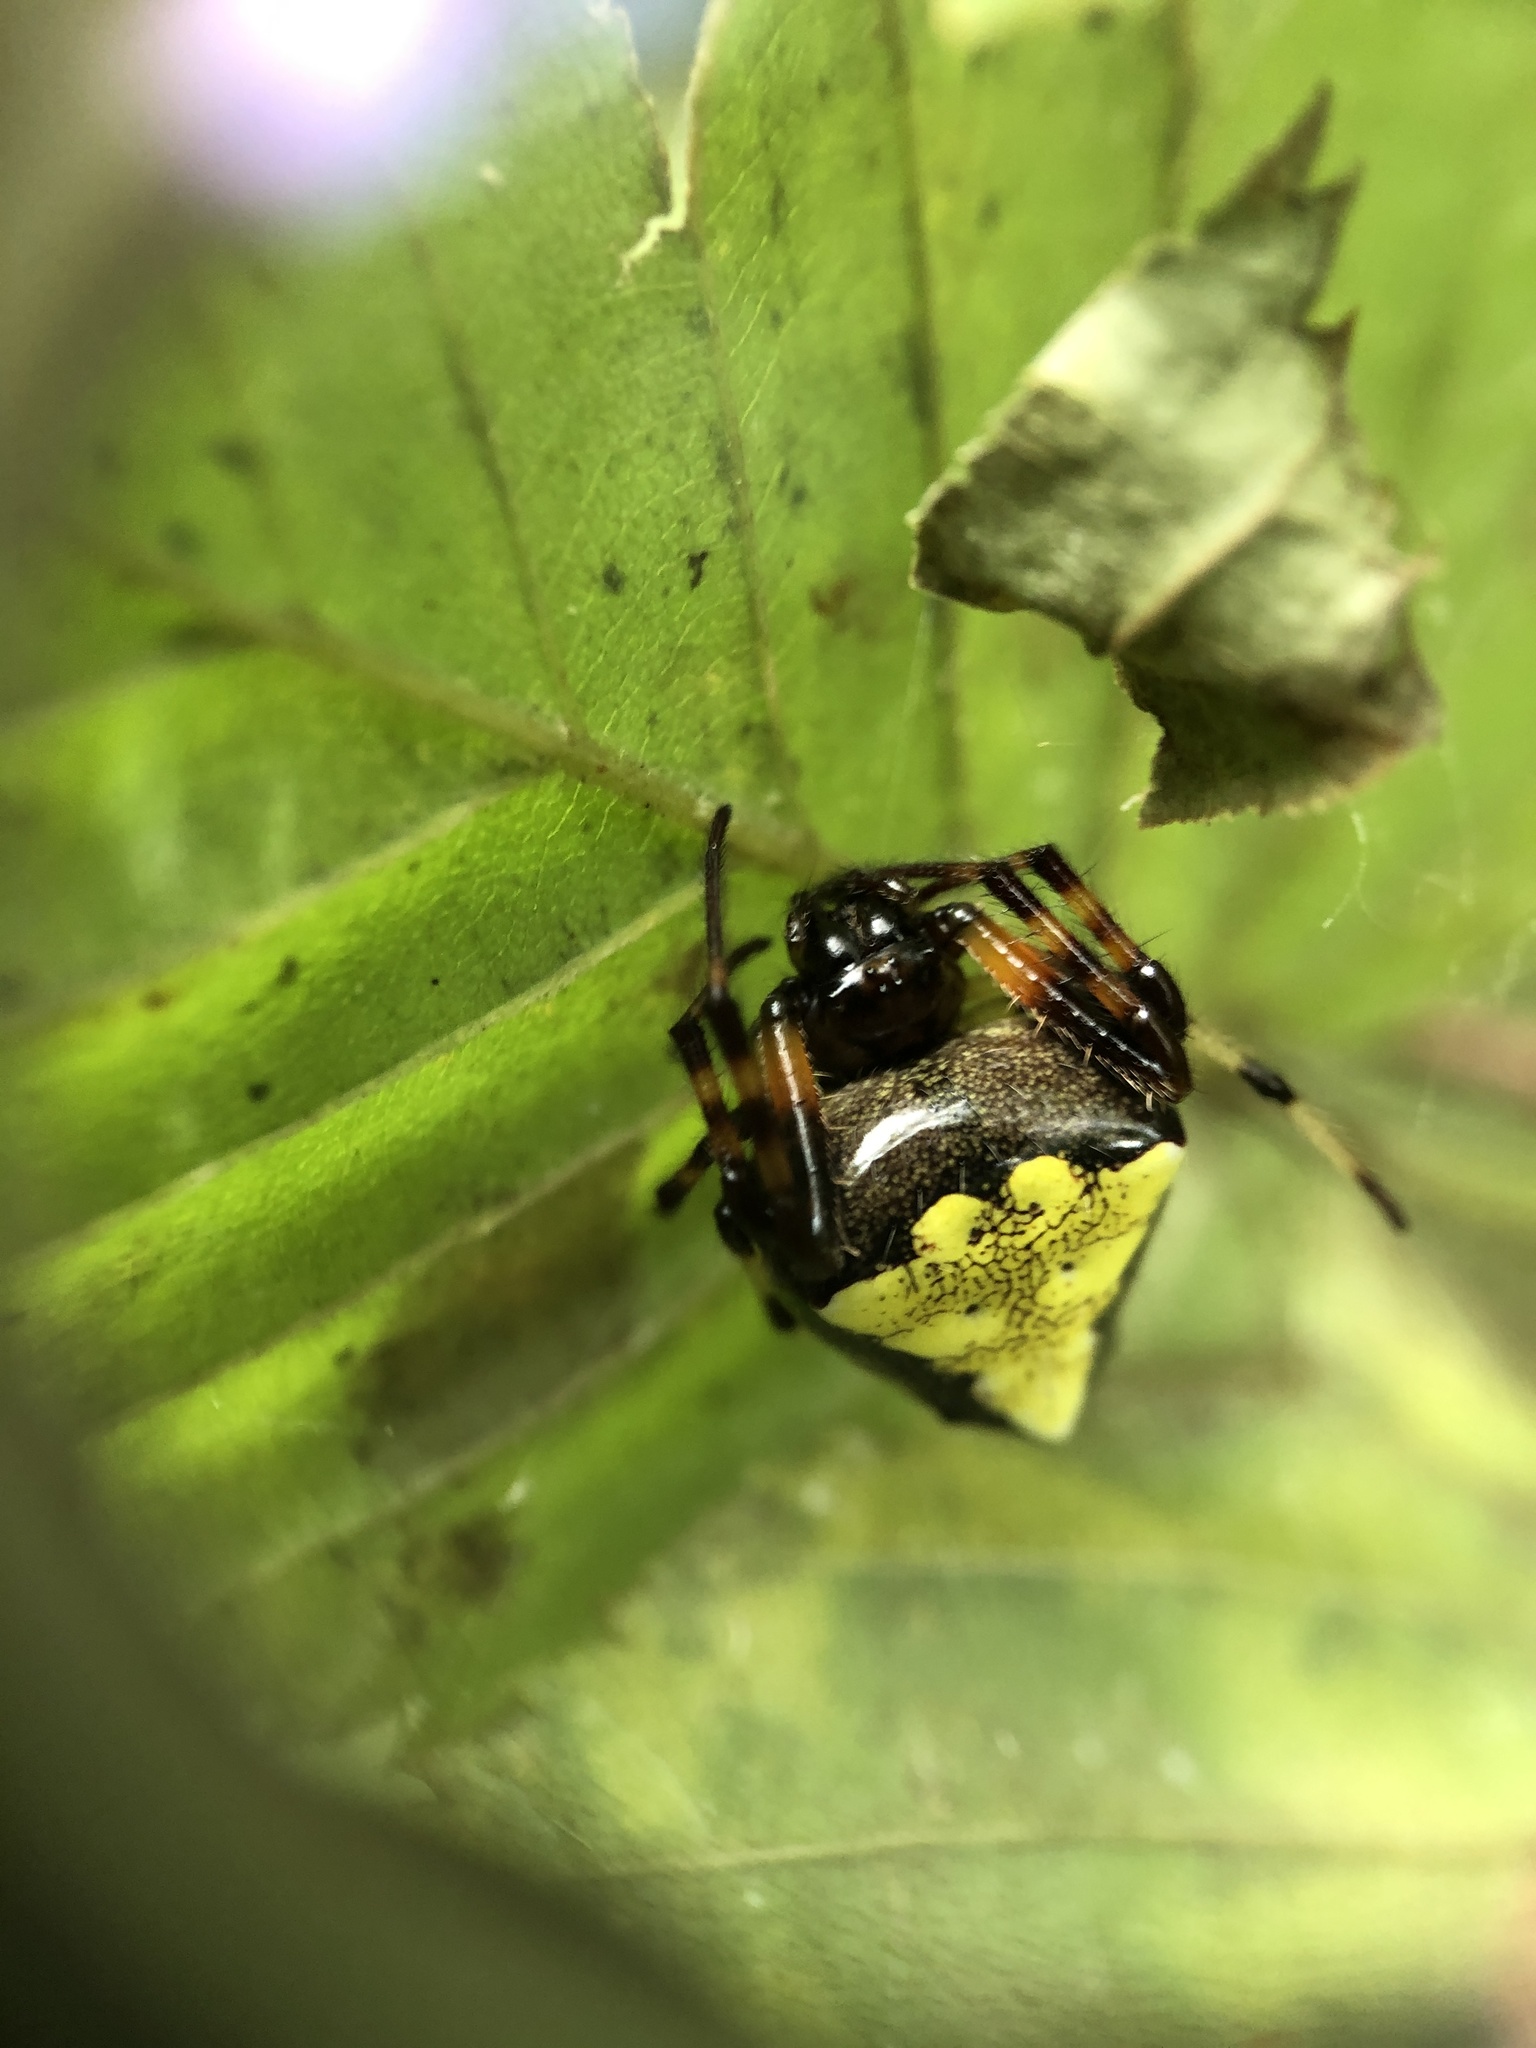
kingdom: Animalia
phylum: Arthropoda
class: Arachnida
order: Araneae
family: Araneidae
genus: Verrucosa
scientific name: Verrucosa arenata
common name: Orb weavers
